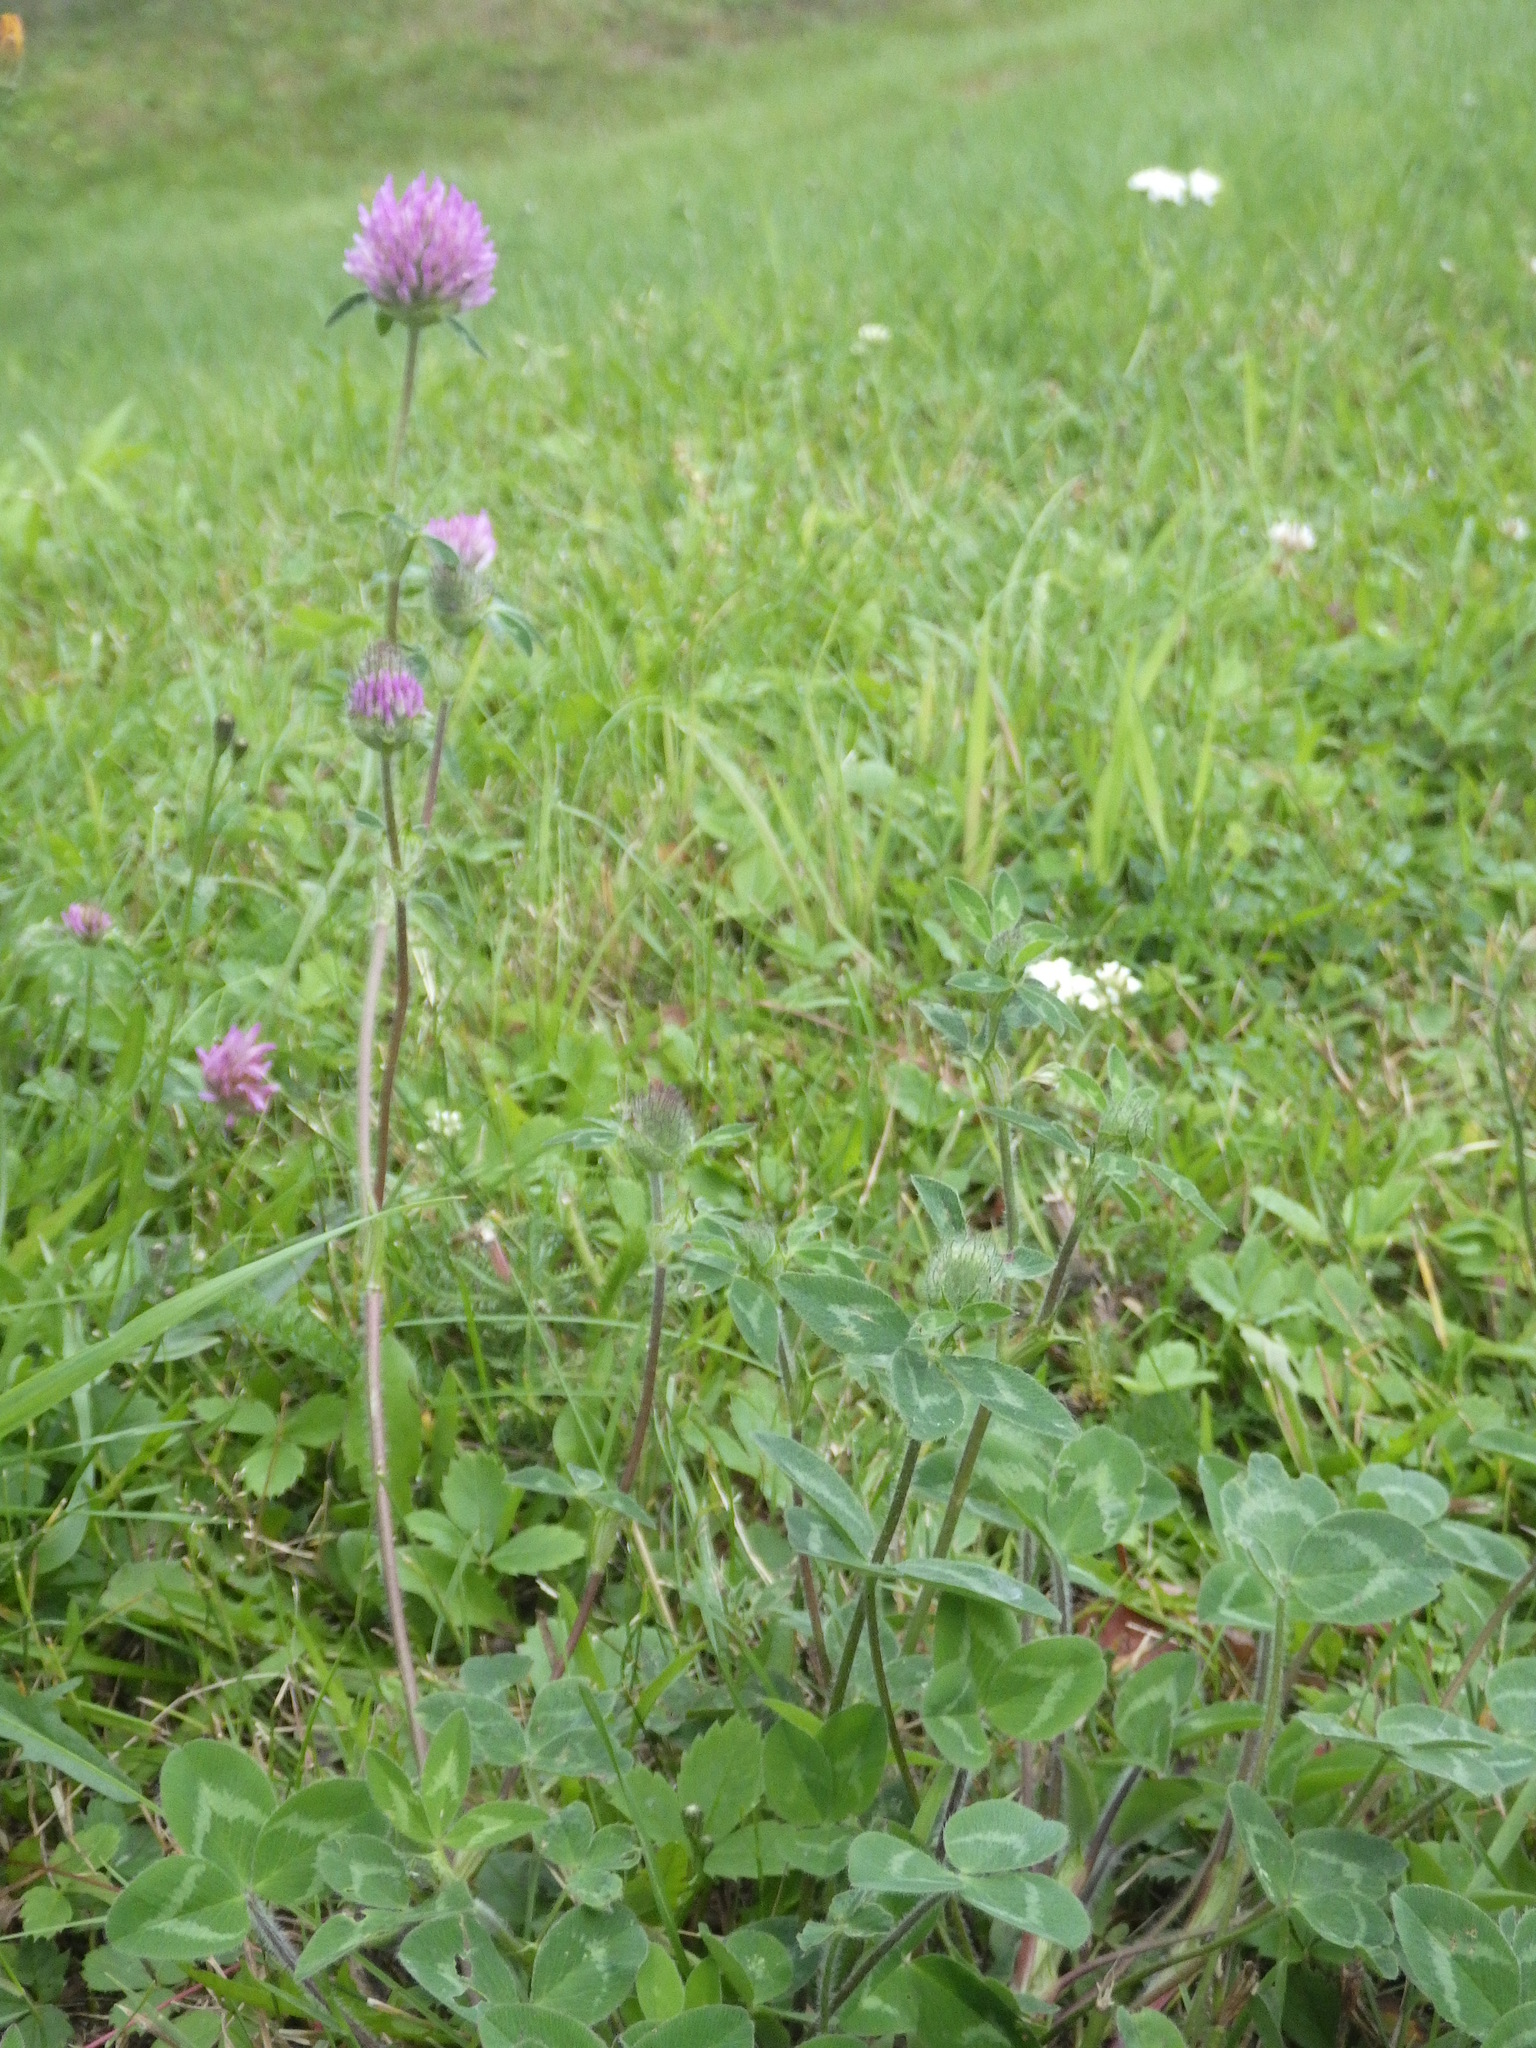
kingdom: Plantae
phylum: Tracheophyta
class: Magnoliopsida
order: Fabales
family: Fabaceae
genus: Trifolium
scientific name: Trifolium pratense
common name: Red clover
